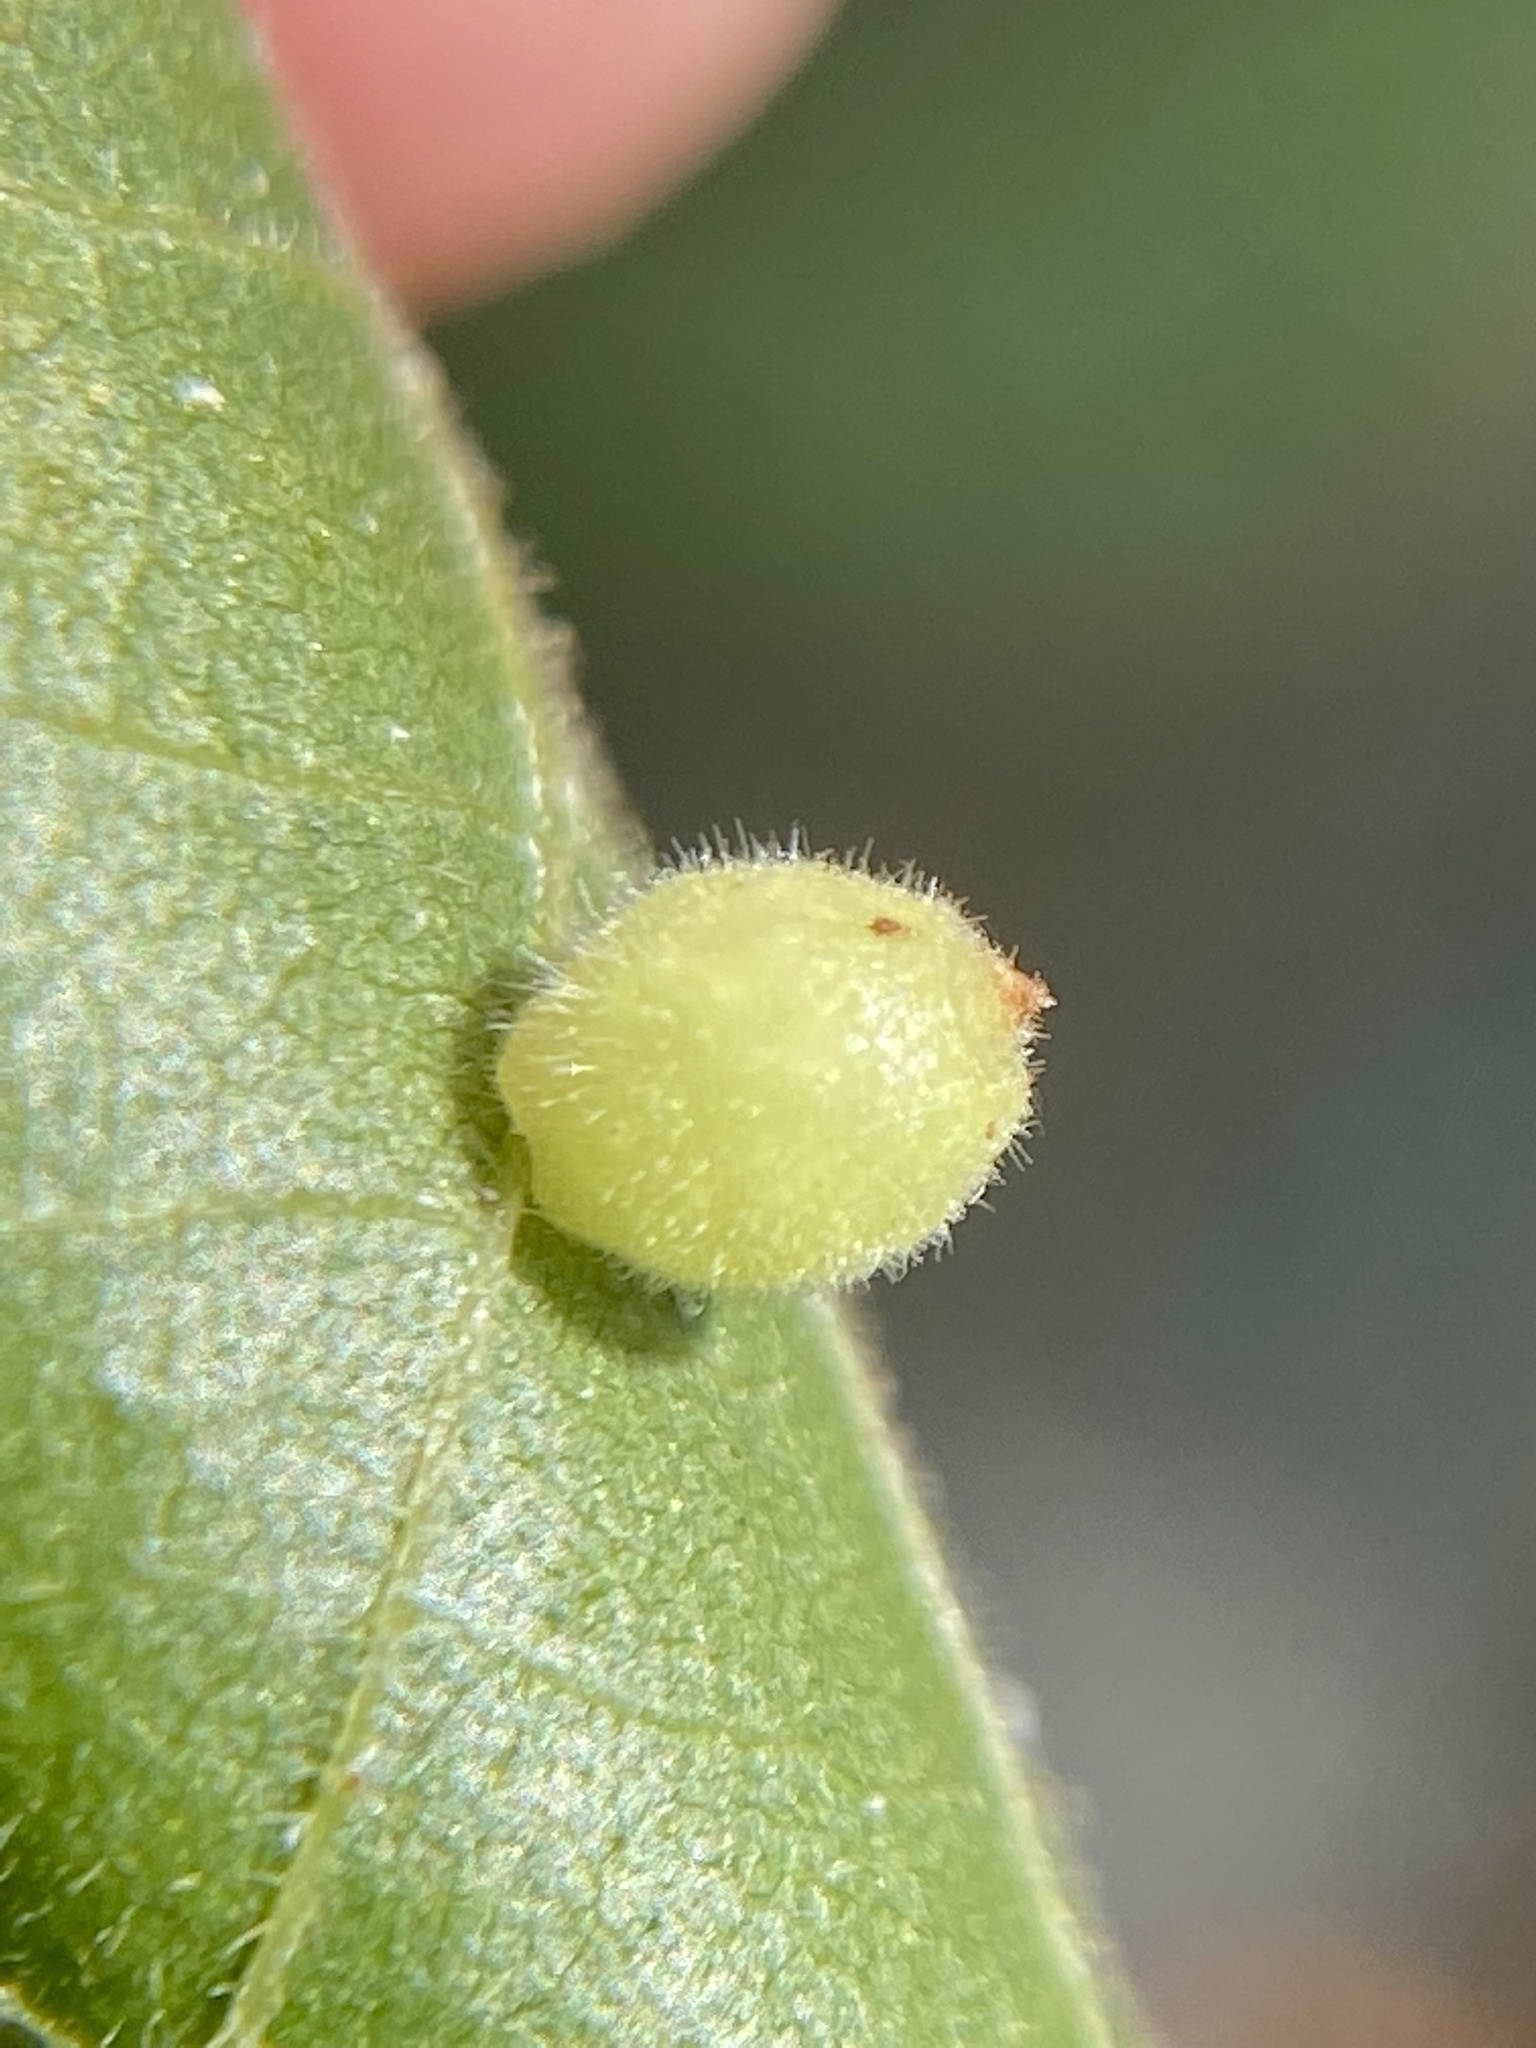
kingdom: Animalia
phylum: Arthropoda
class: Insecta
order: Diptera
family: Cecidomyiidae
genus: Caryomyia
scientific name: Caryomyia cilidolium
